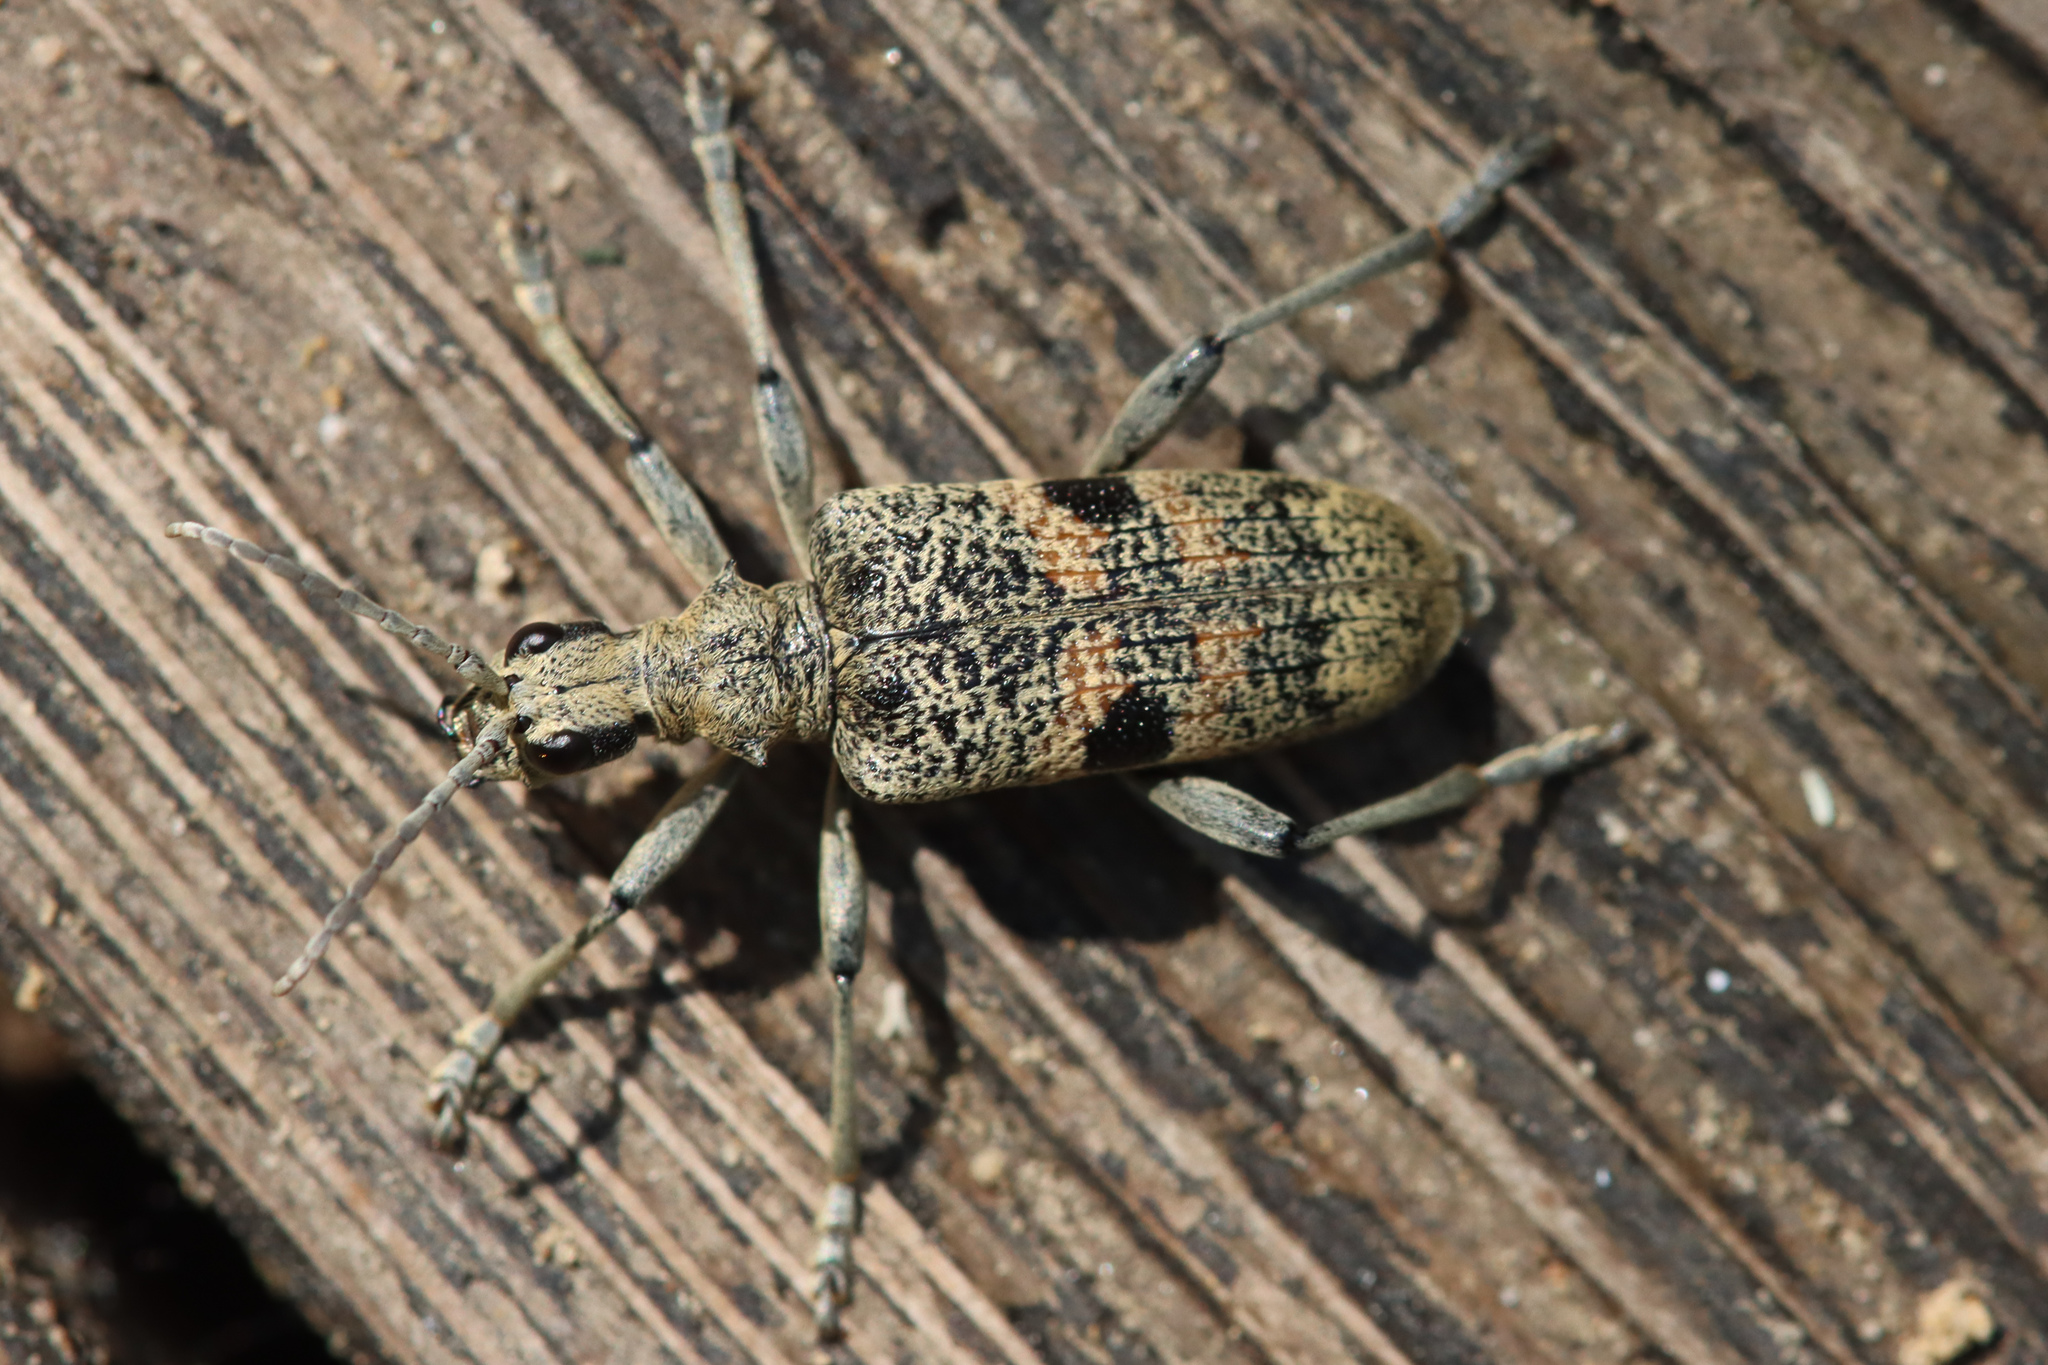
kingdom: Animalia
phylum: Arthropoda
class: Insecta
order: Coleoptera
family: Cerambycidae
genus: Rhagium
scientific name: Rhagium mordax
